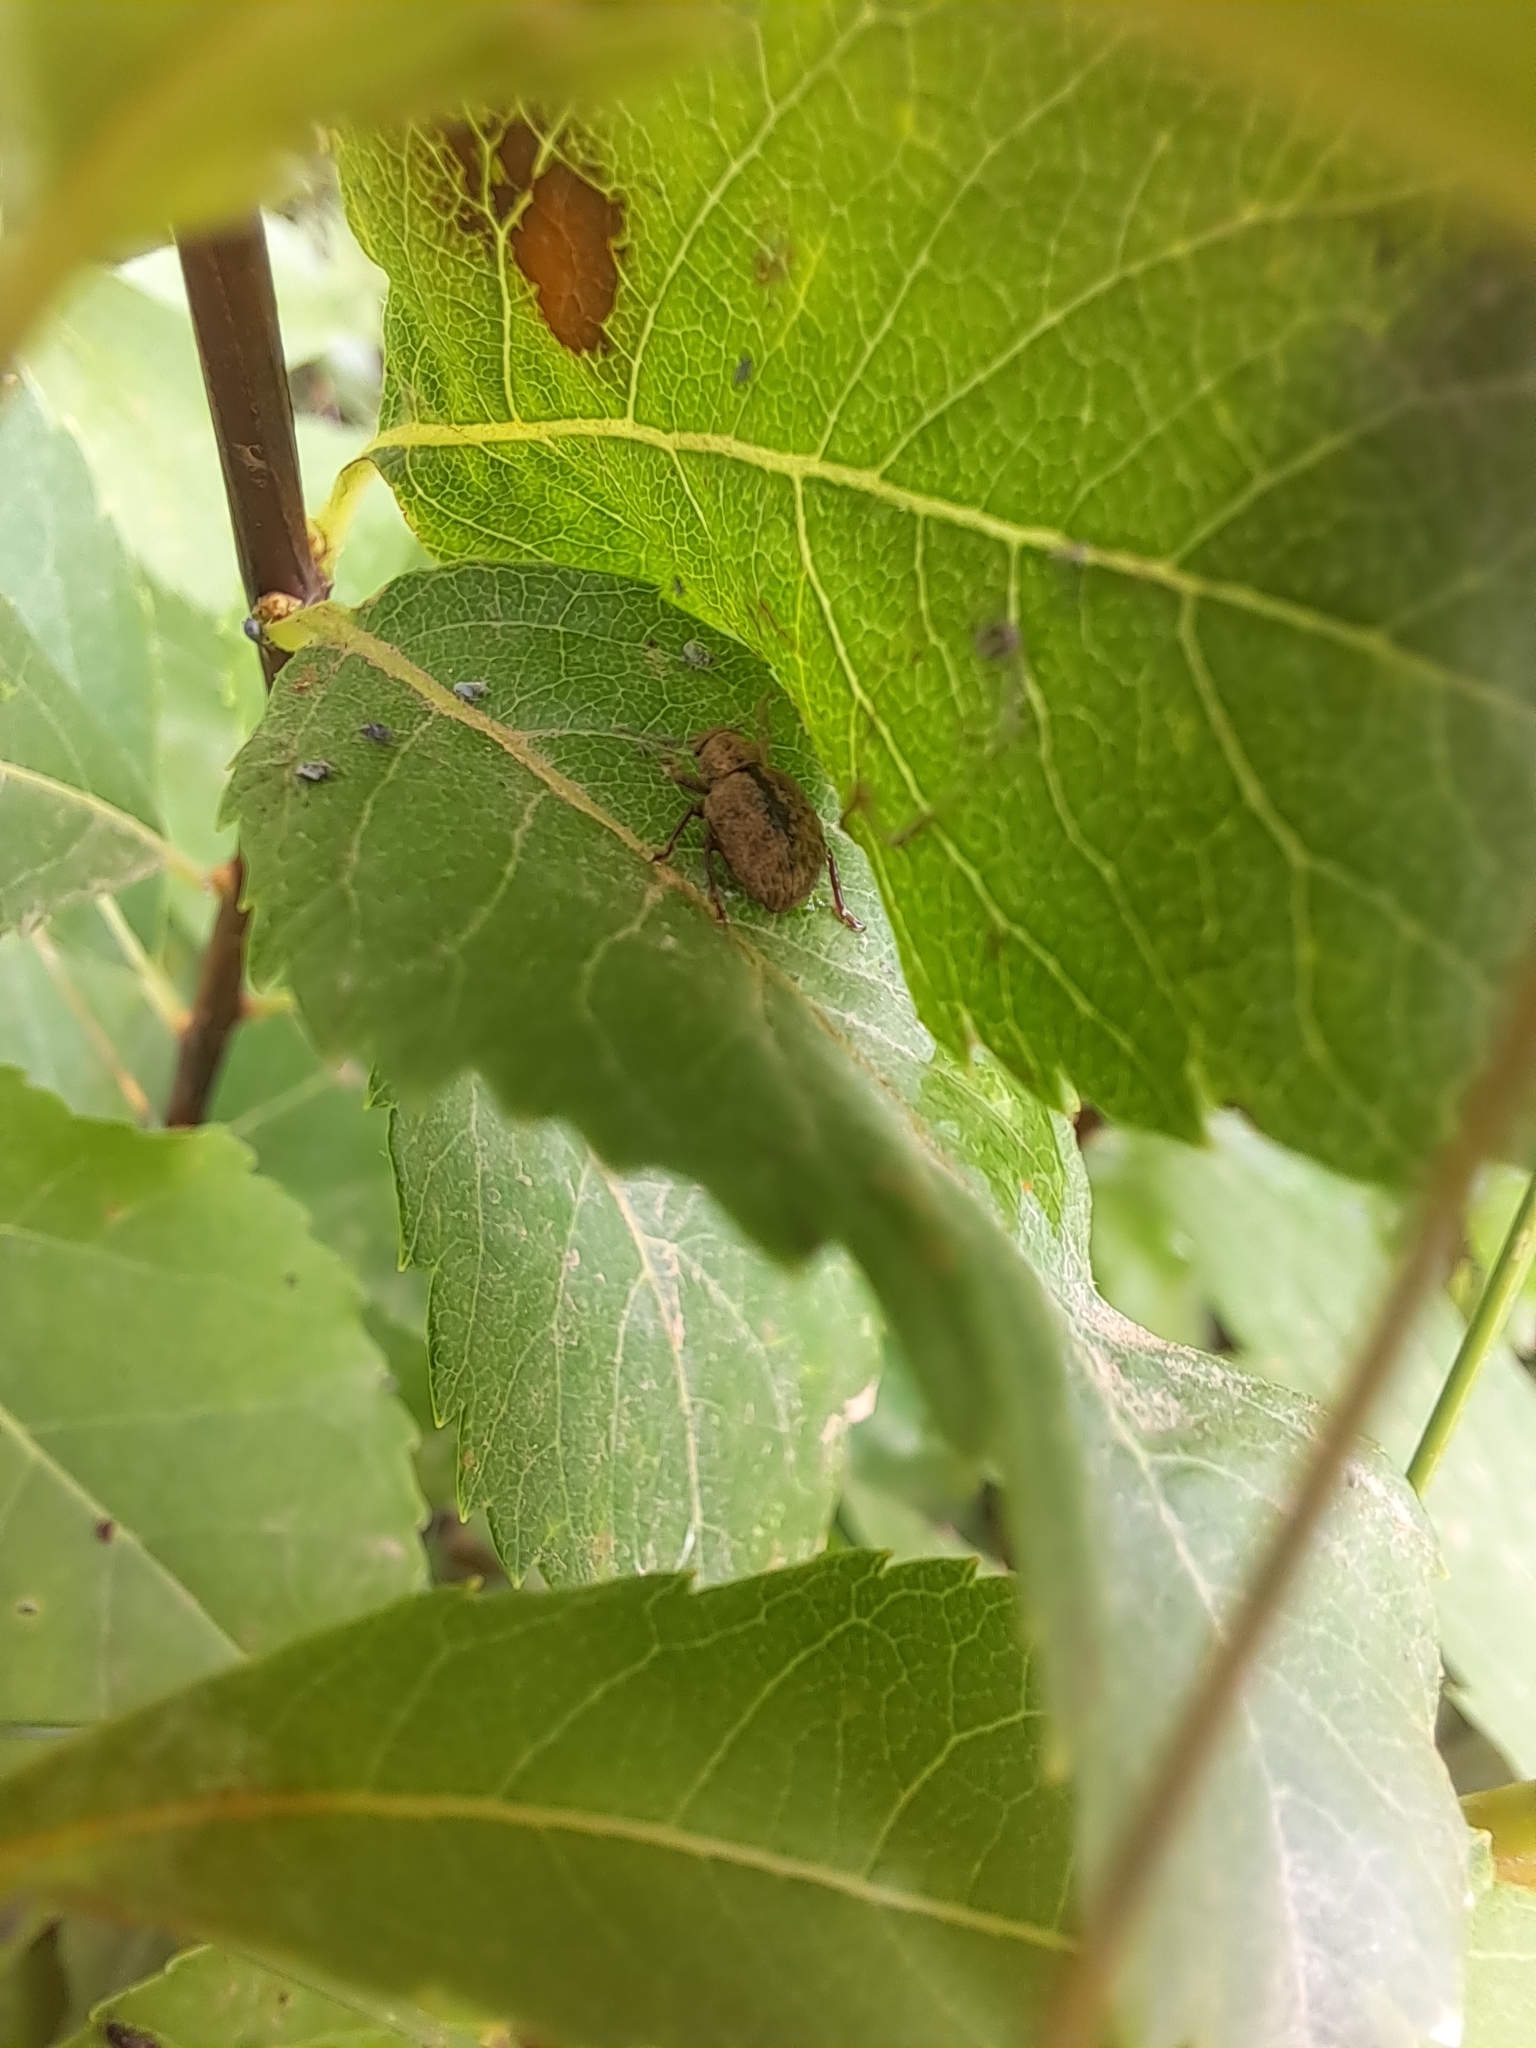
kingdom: Animalia
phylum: Arthropoda
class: Insecta
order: Coleoptera
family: Curculionidae
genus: Strophosoma
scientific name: Strophosoma melanogrammum
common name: Weevil
